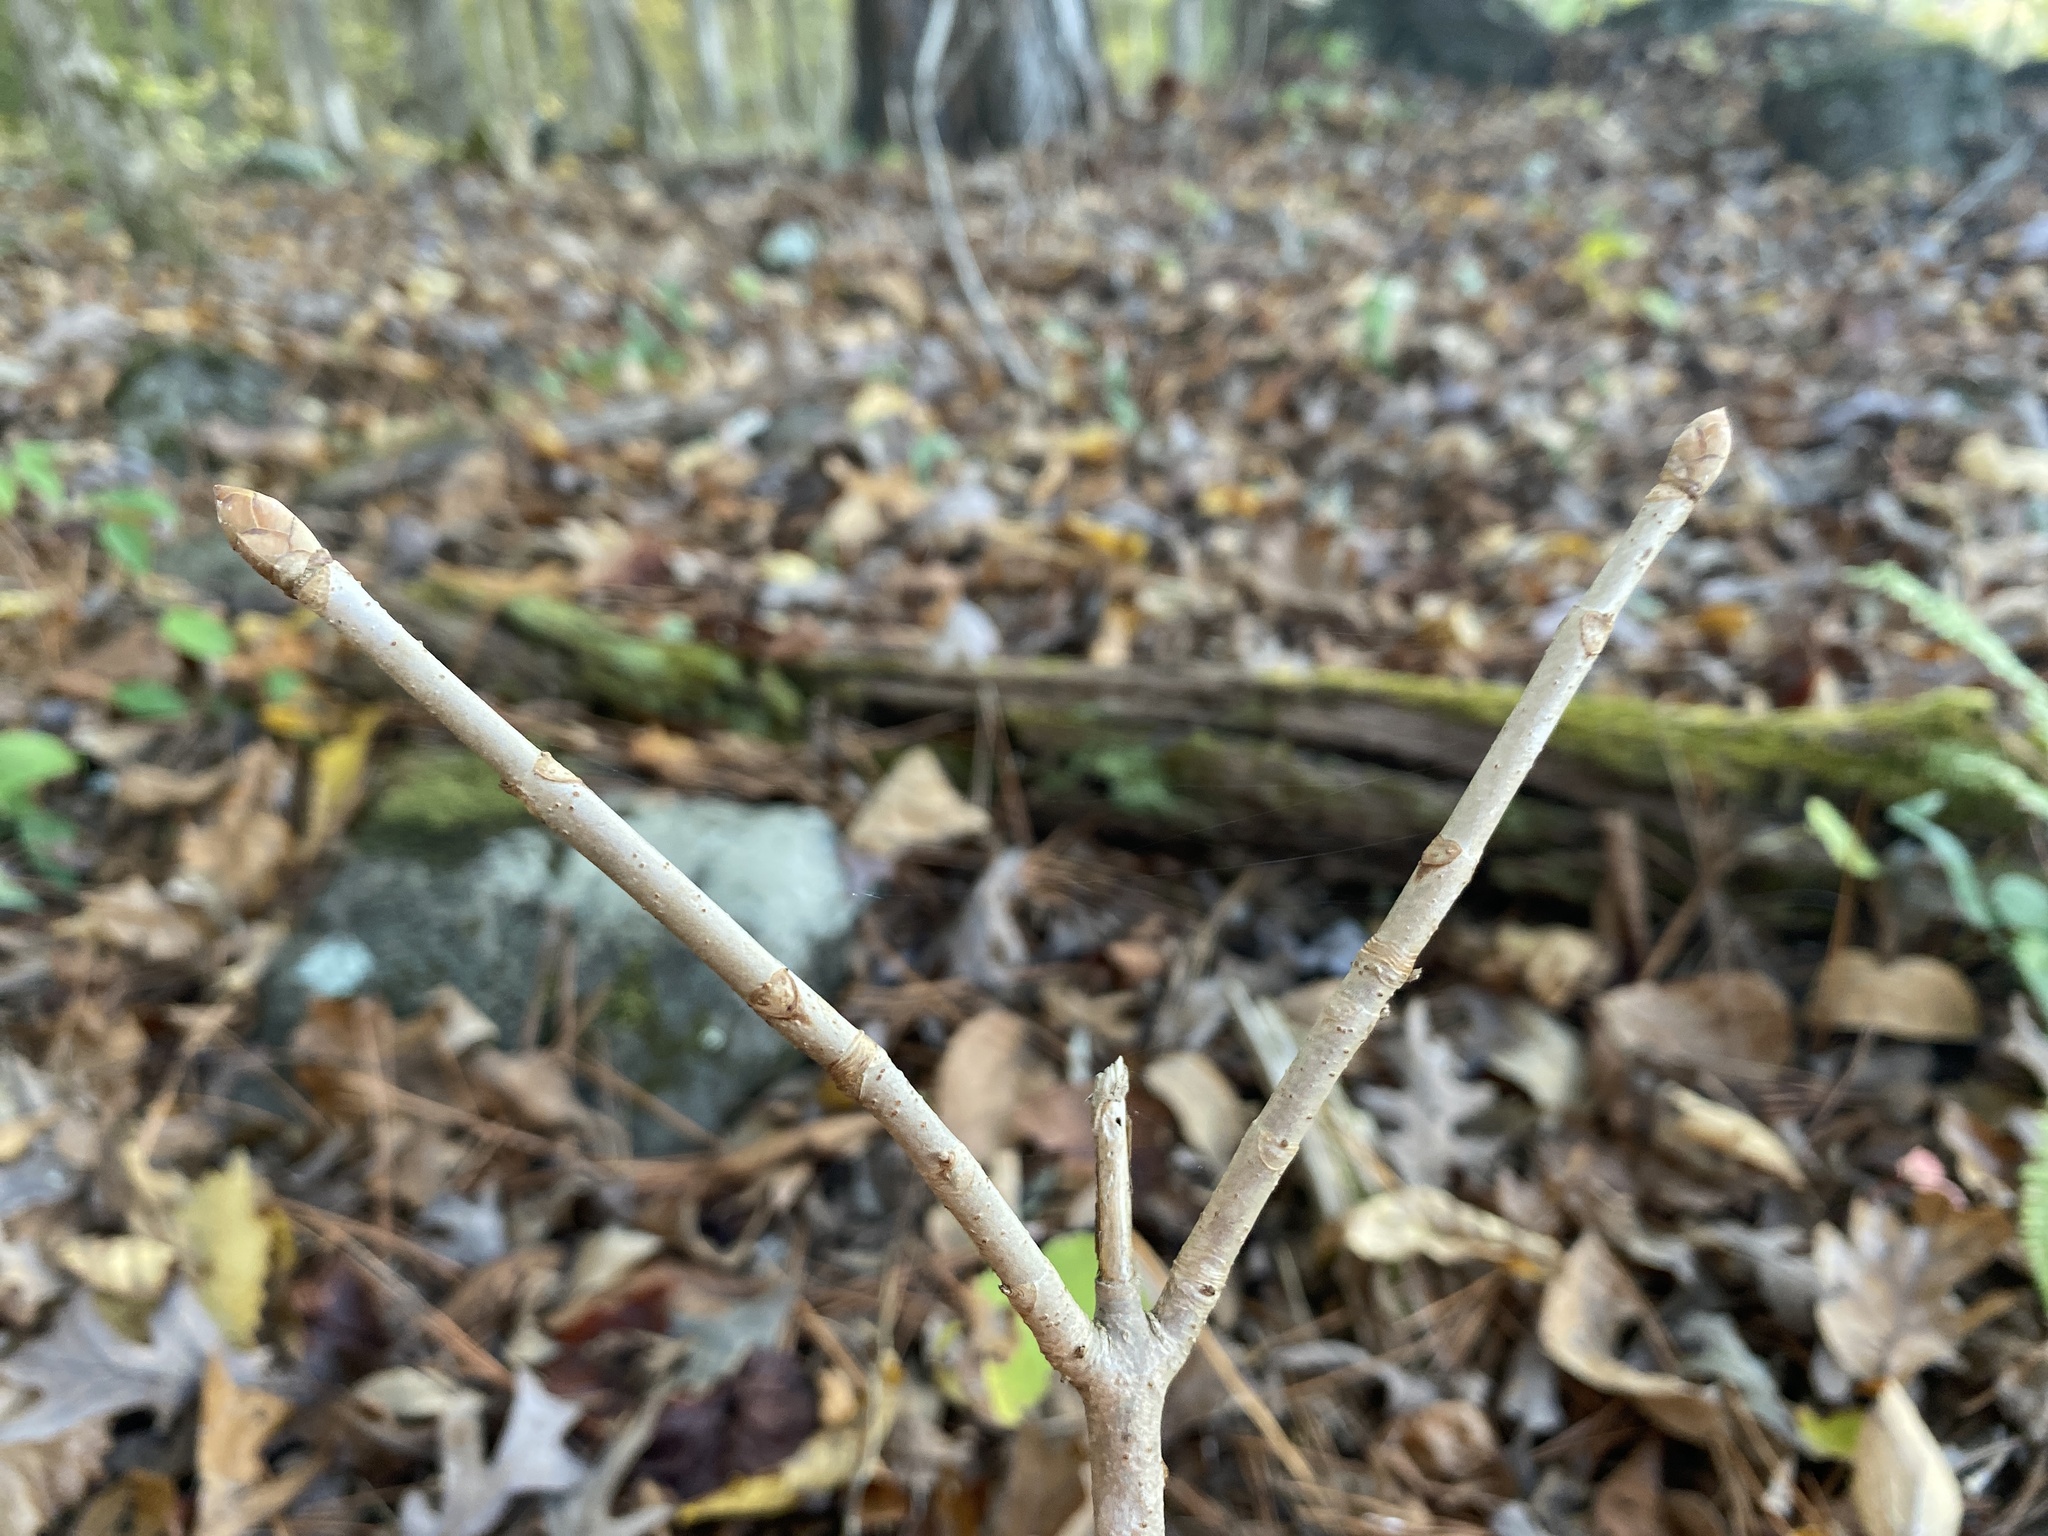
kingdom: Plantae
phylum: Tracheophyta
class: Magnoliopsida
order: Sapindales
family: Sapindaceae
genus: Aesculus
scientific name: Aesculus sylvatica
